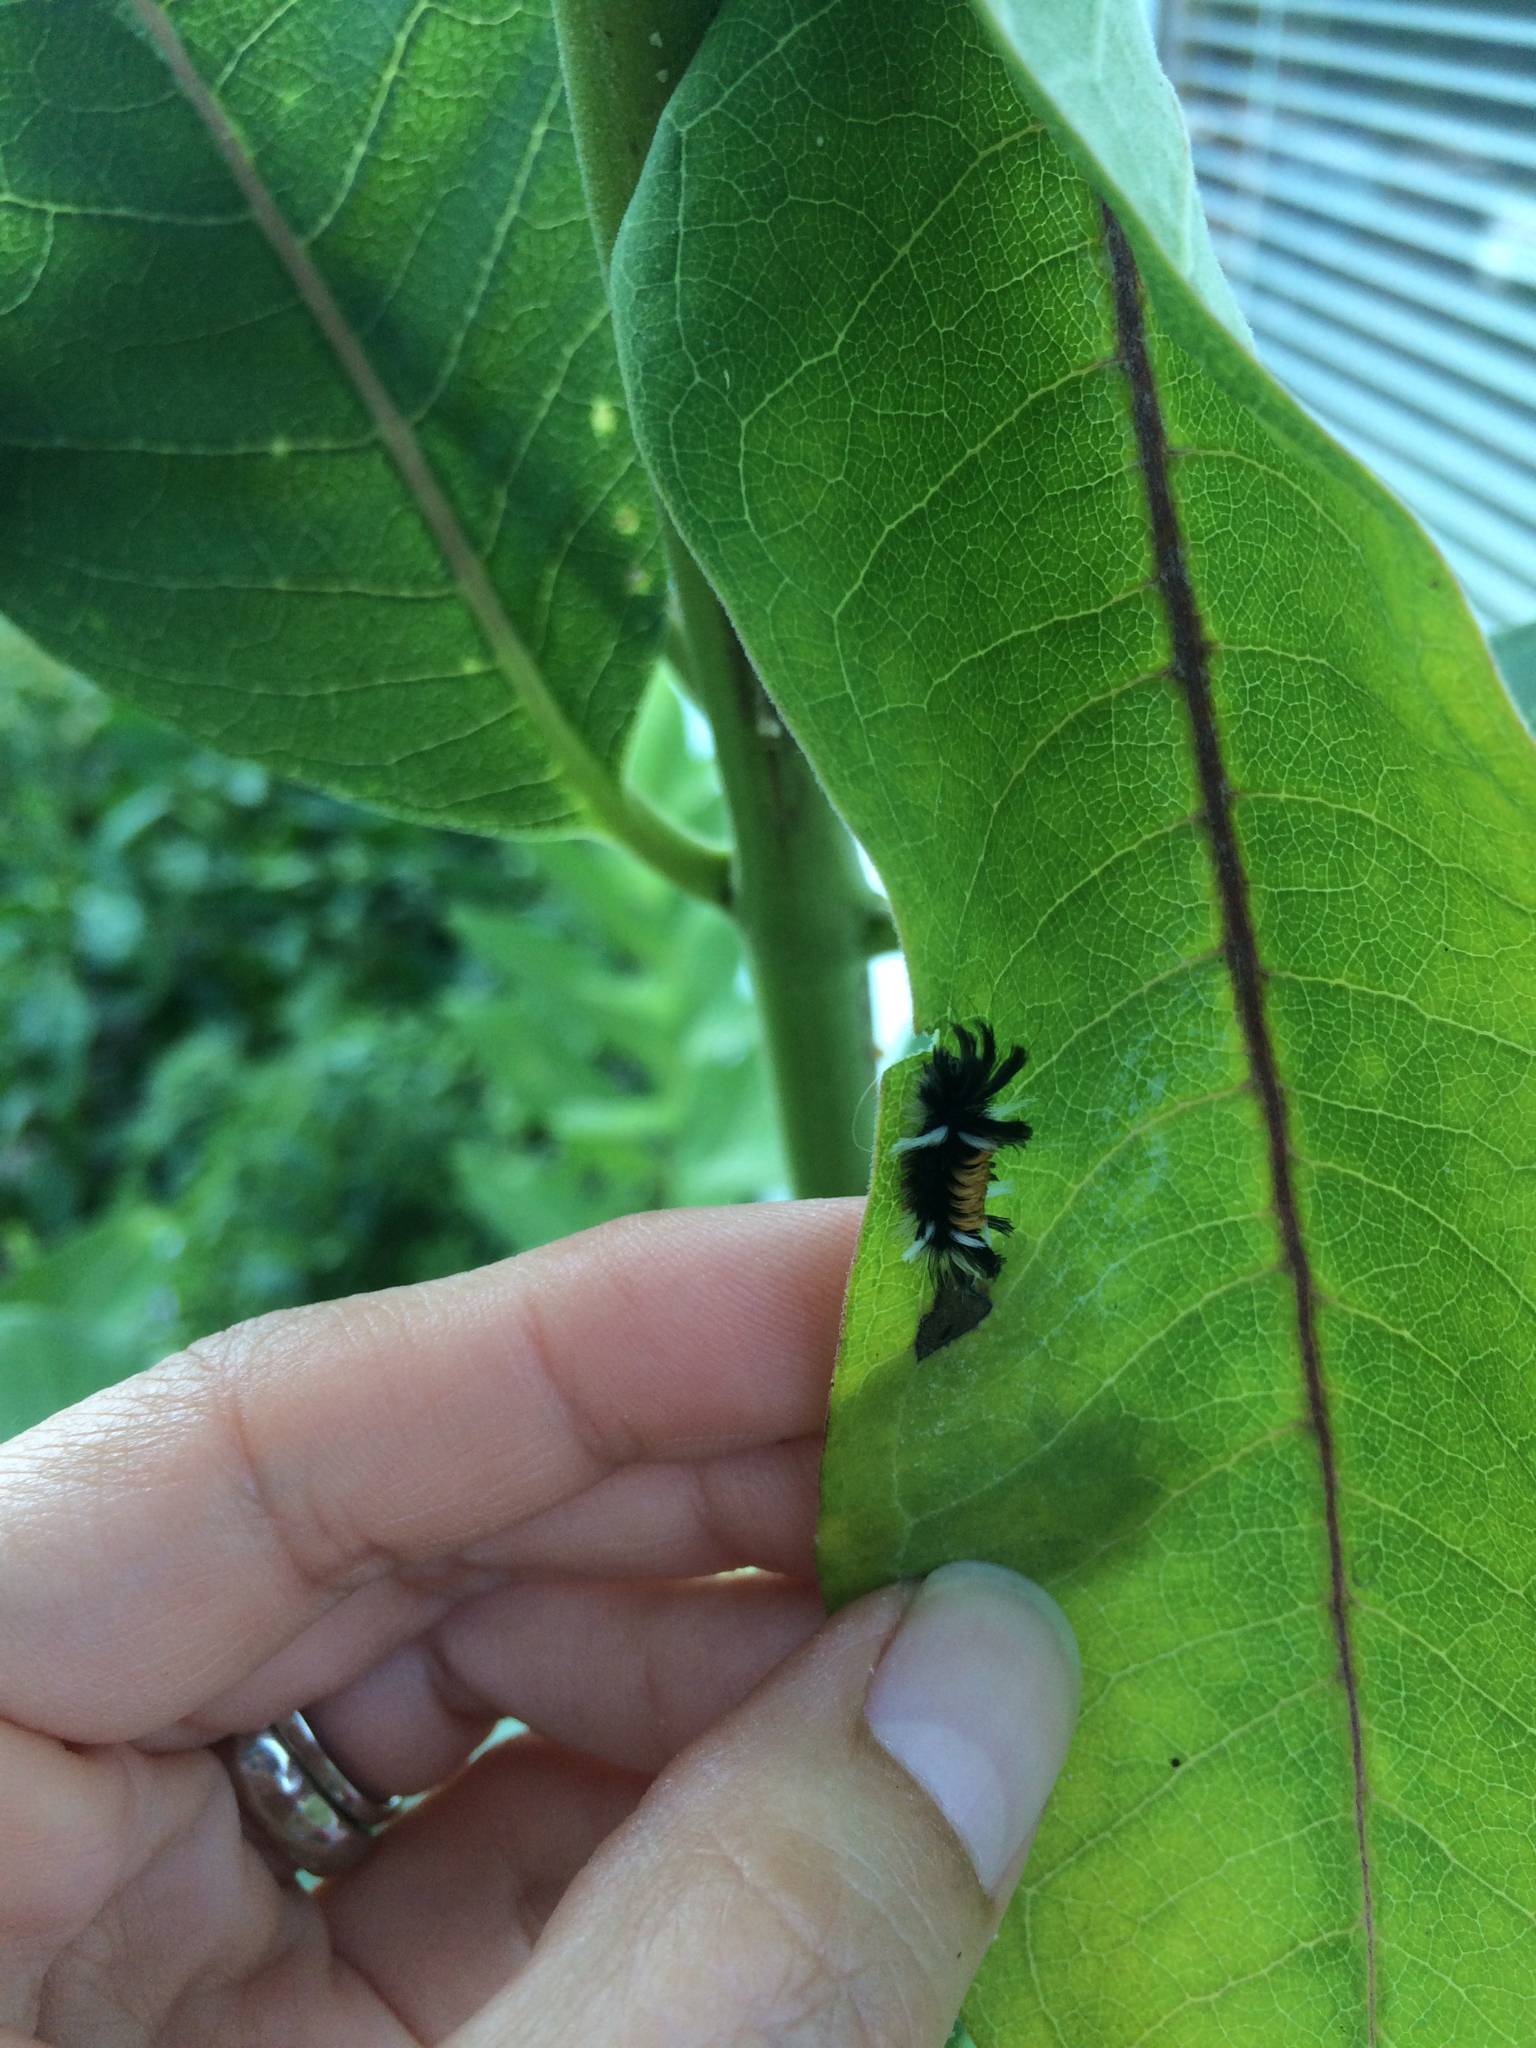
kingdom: Animalia
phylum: Arthropoda
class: Insecta
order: Lepidoptera
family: Erebidae
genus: Euchaetes
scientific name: Euchaetes egle
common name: Milkweed tussock moth
